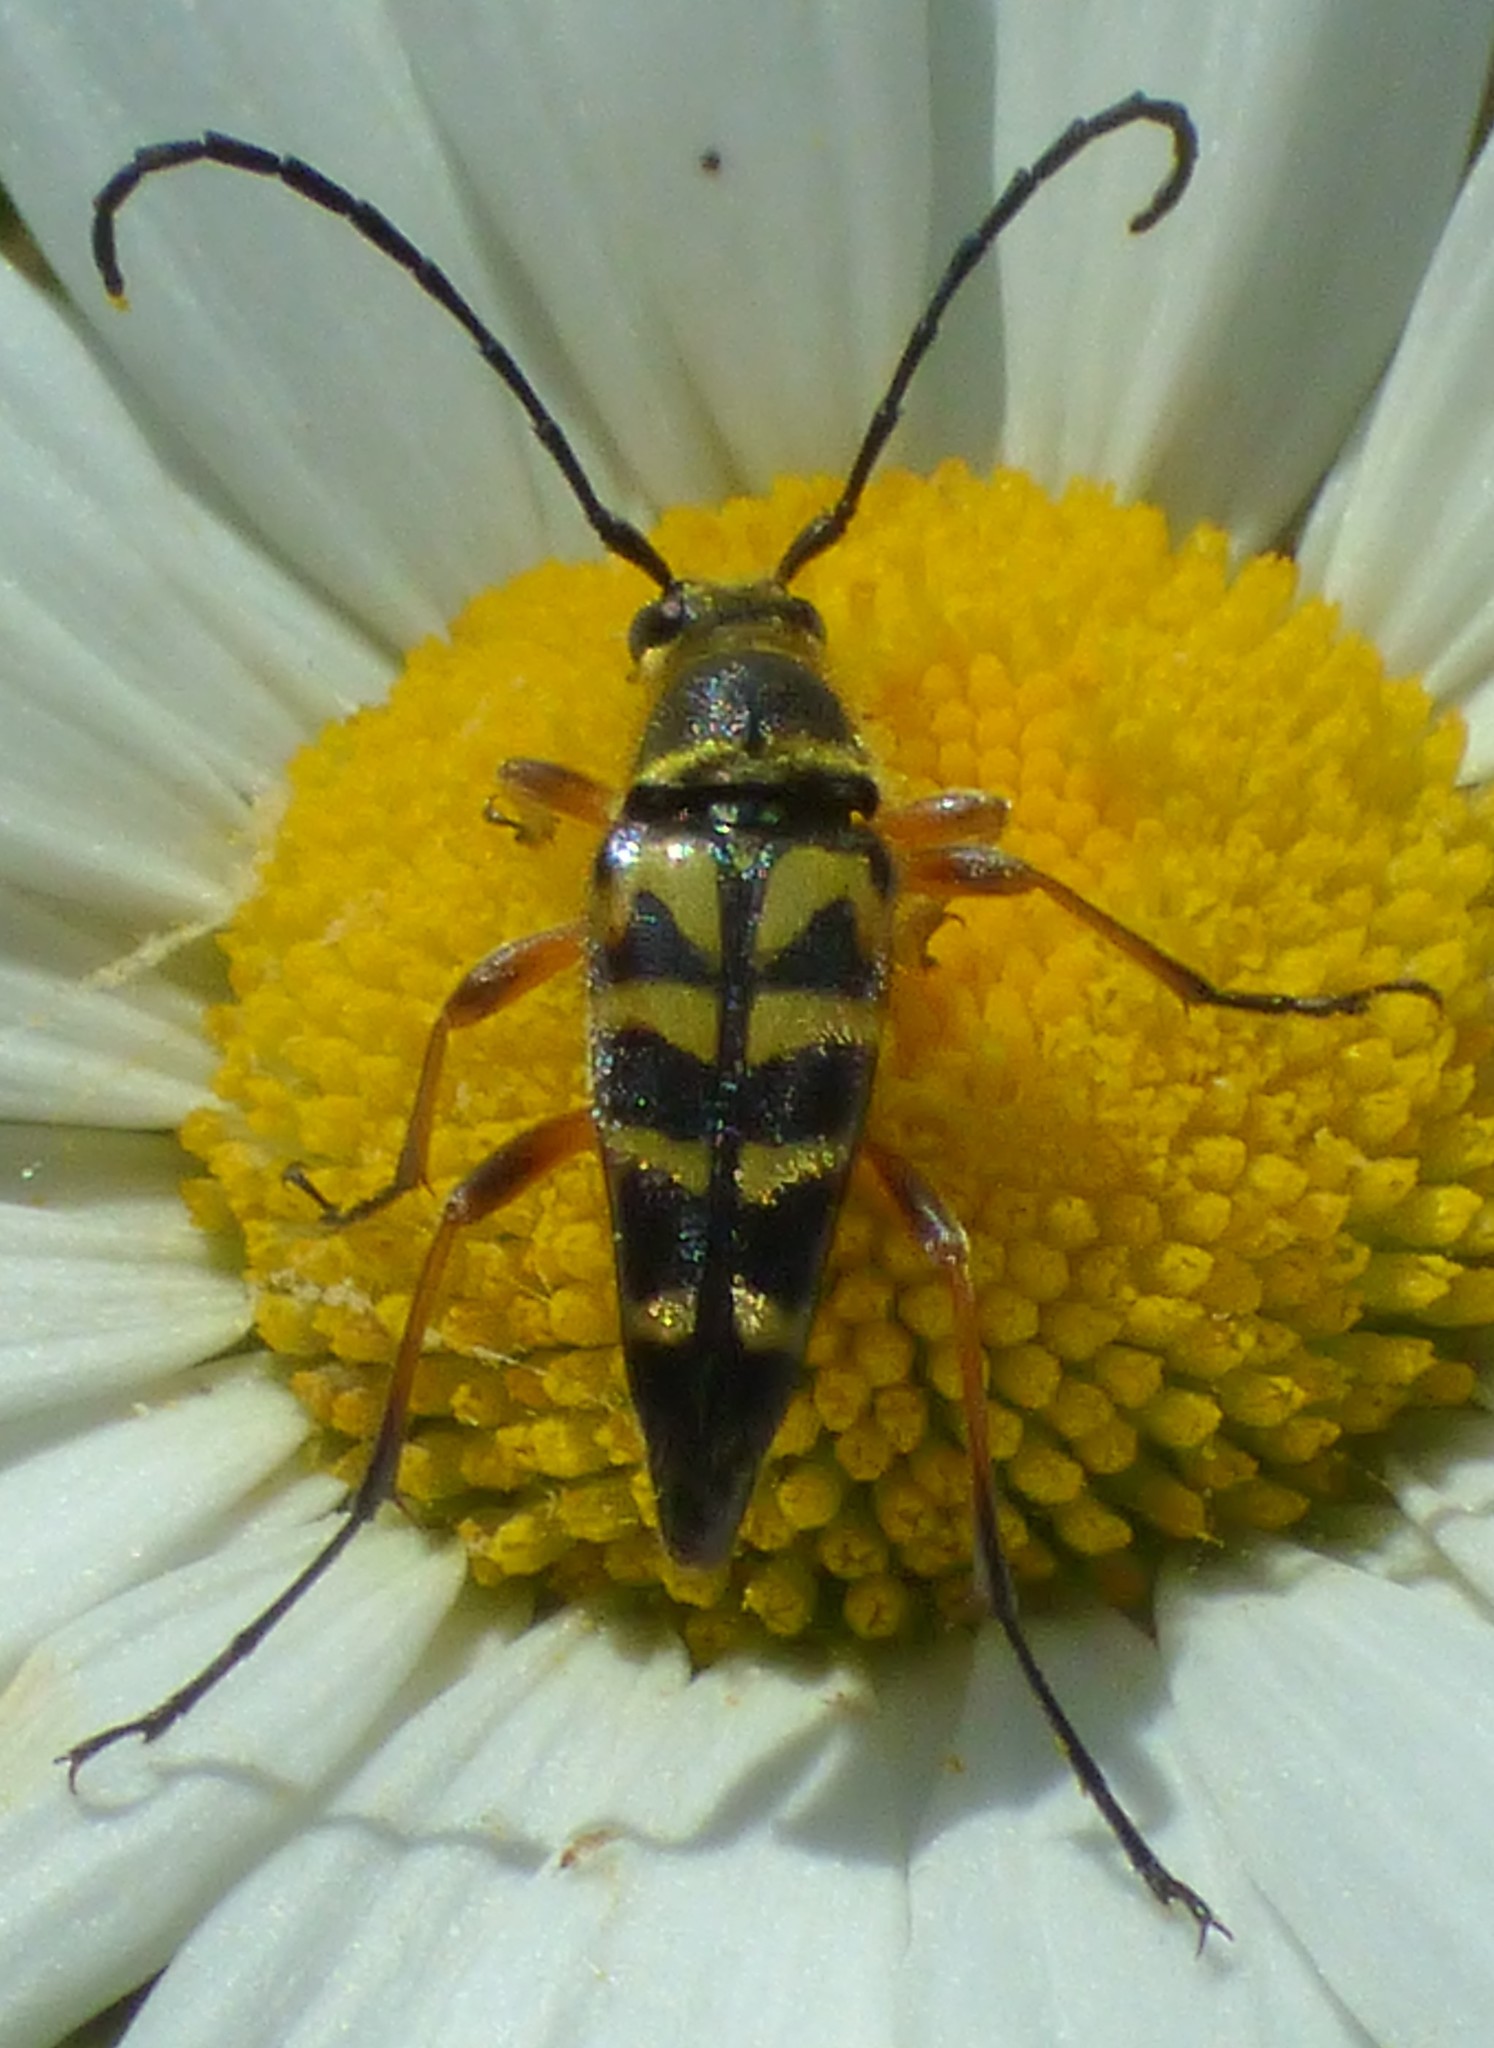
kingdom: Animalia
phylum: Arthropoda
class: Insecta
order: Coleoptera
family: Cerambycidae
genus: Typocerus
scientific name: Typocerus zebra
